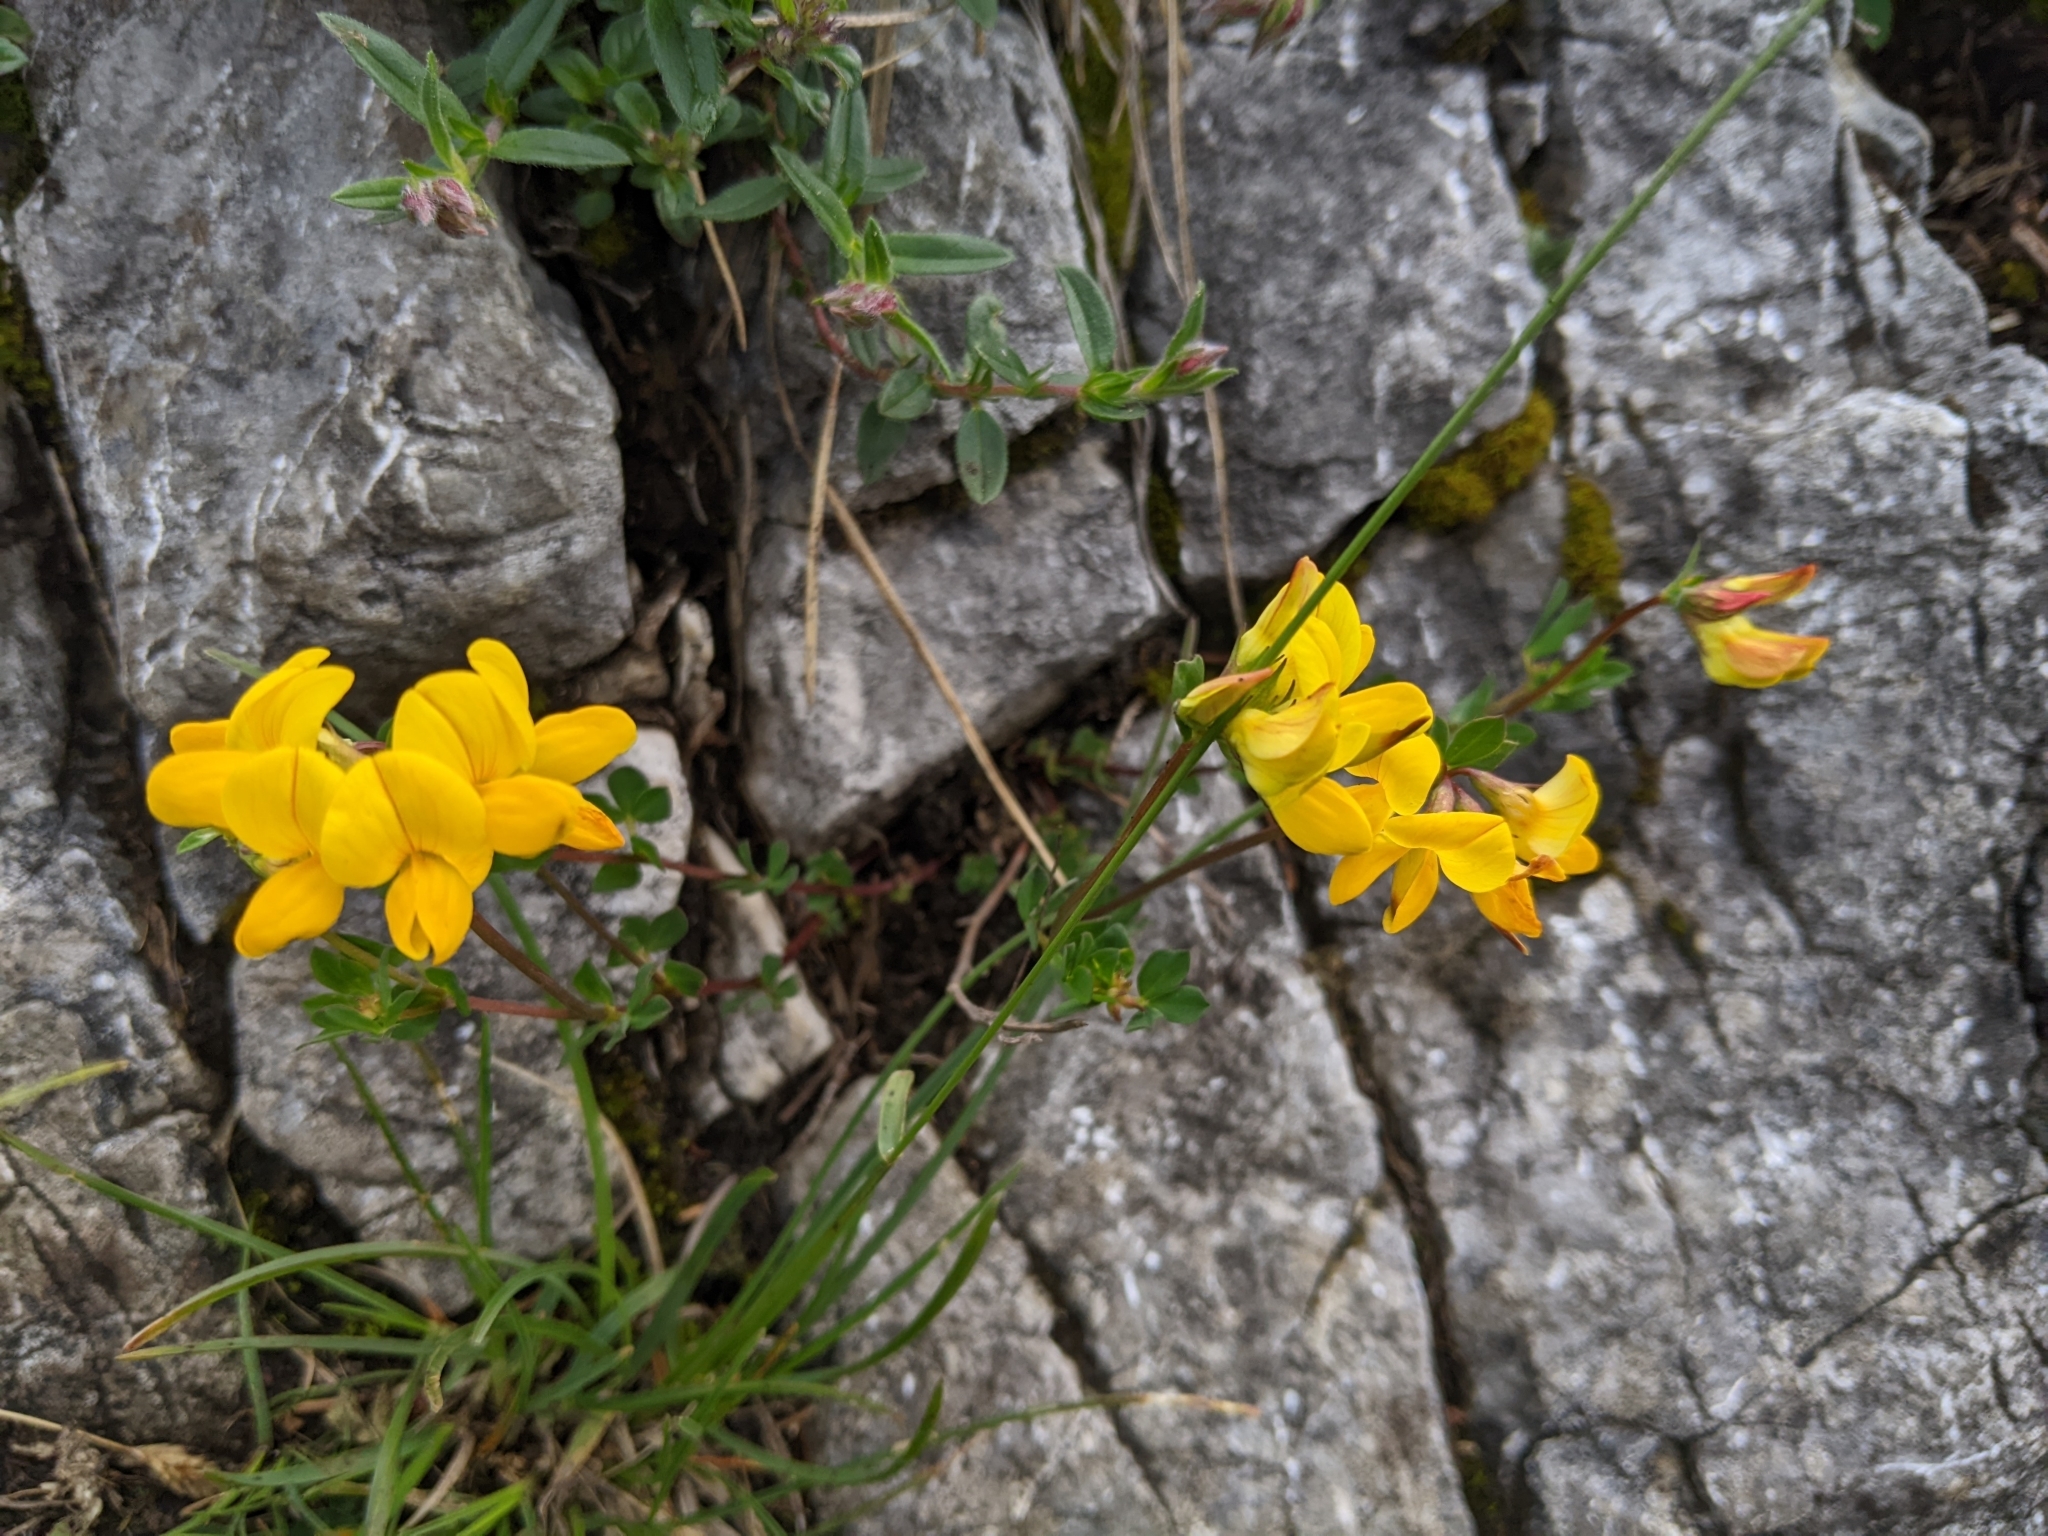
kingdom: Plantae
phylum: Tracheophyta
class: Magnoliopsida
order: Fabales
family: Fabaceae
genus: Lotus
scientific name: Lotus corniculatus
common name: Common bird's-foot-trefoil
